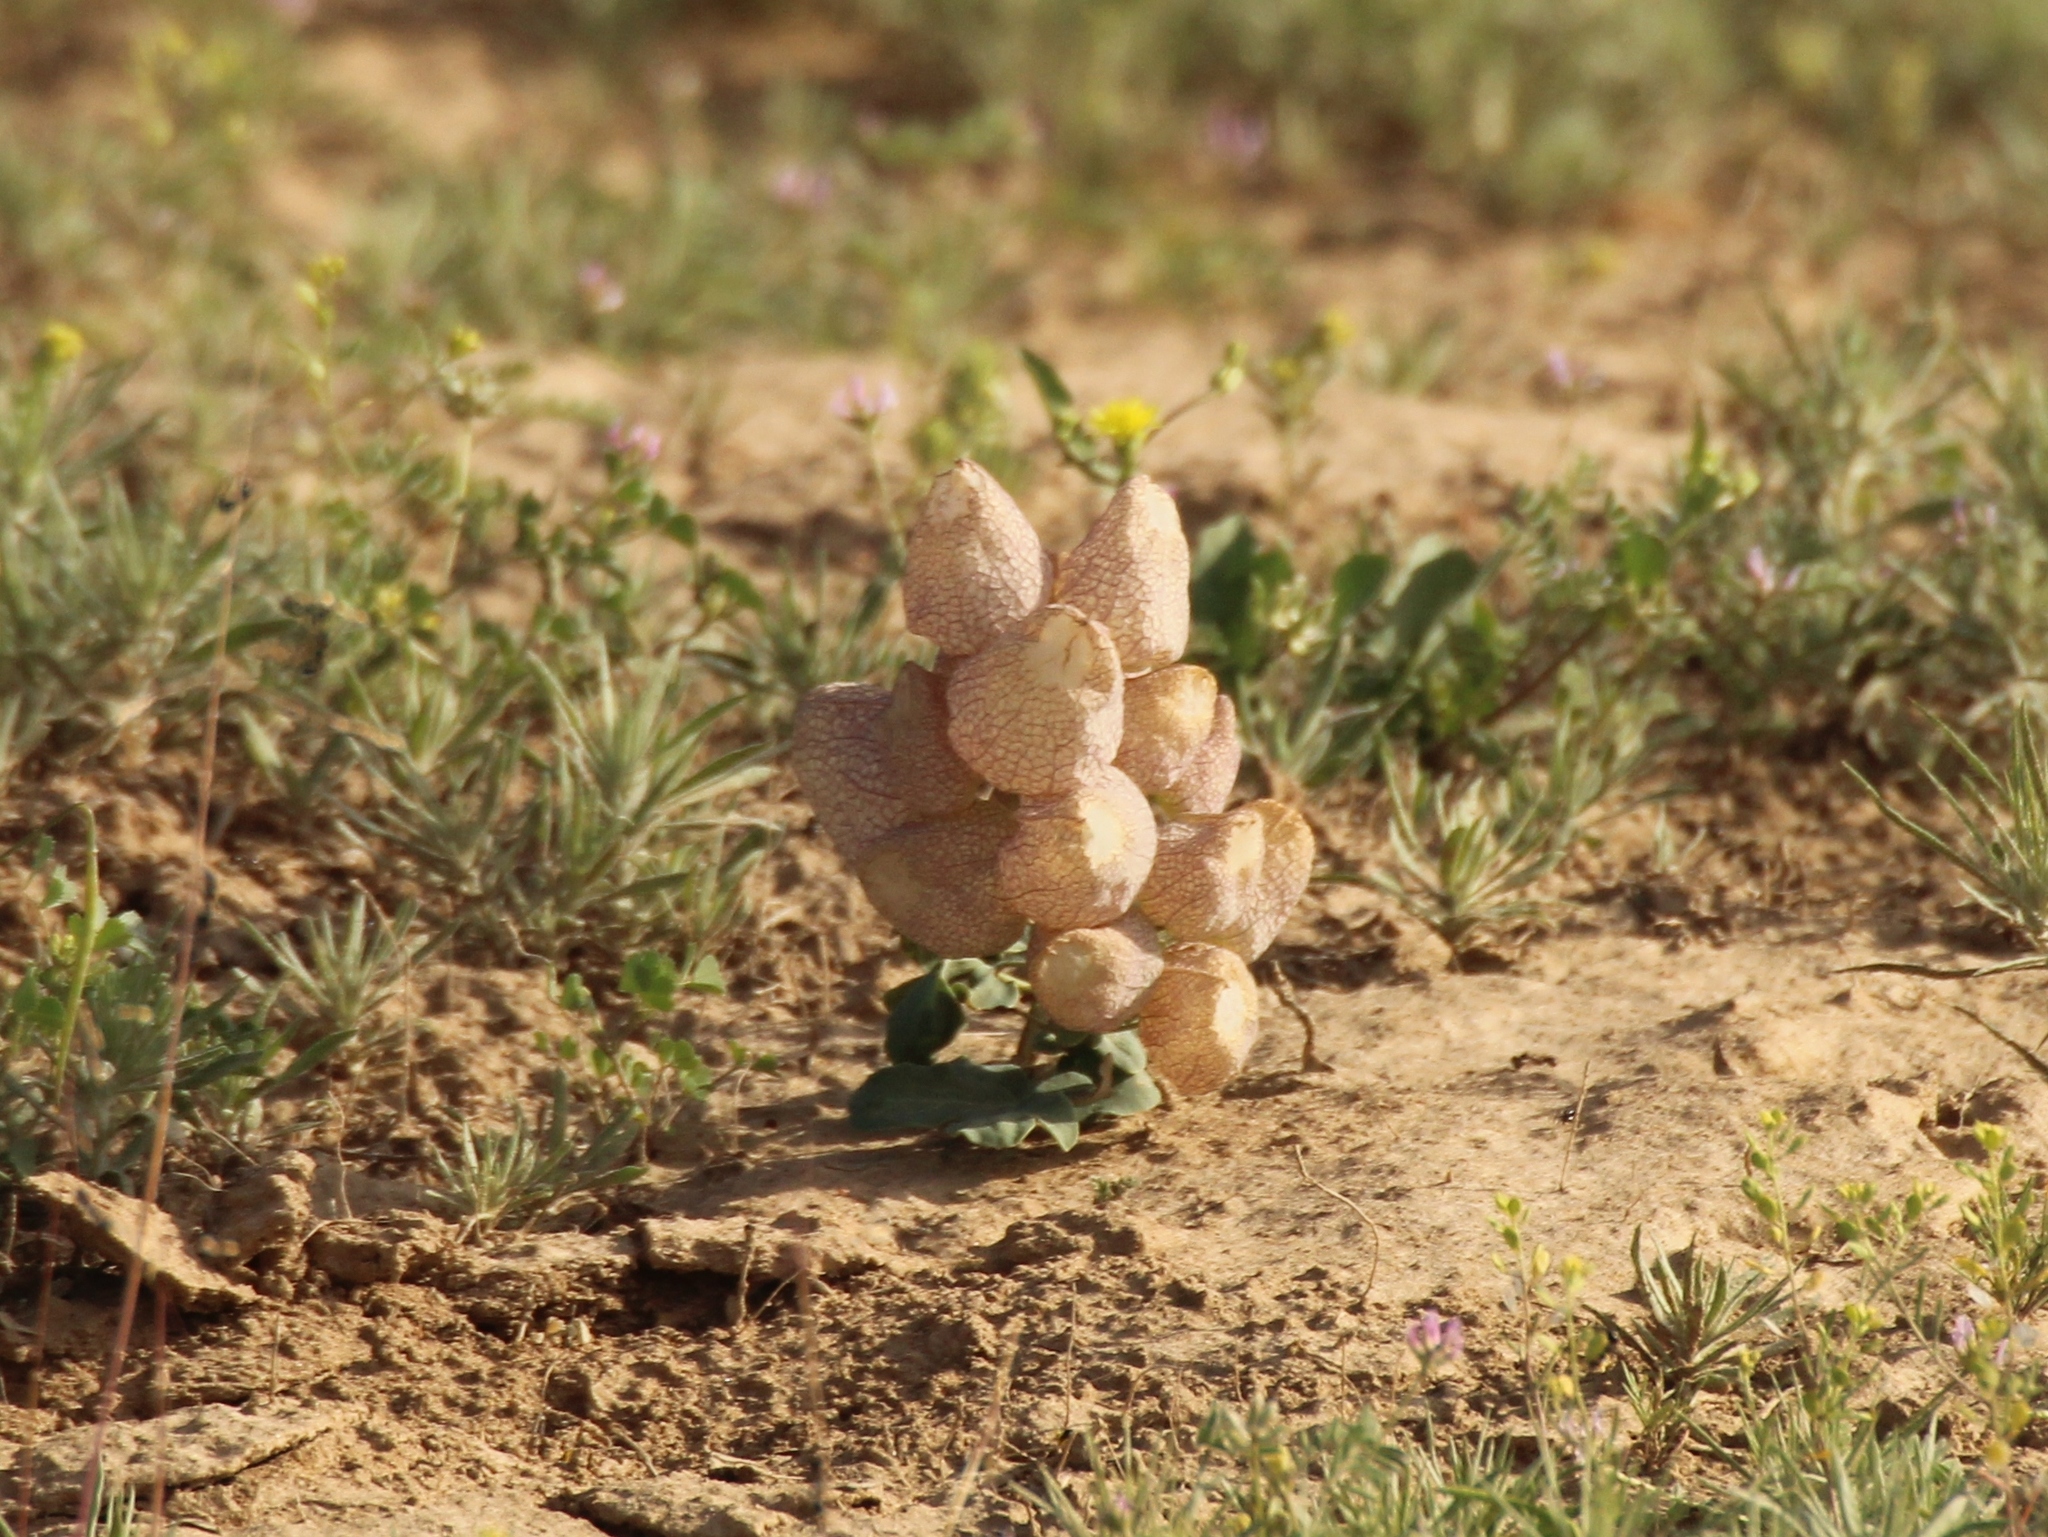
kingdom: Plantae
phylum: Tracheophyta
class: Magnoliopsida
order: Ranunculales
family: Berberidaceae
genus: Leontice
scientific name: Leontice incerta
